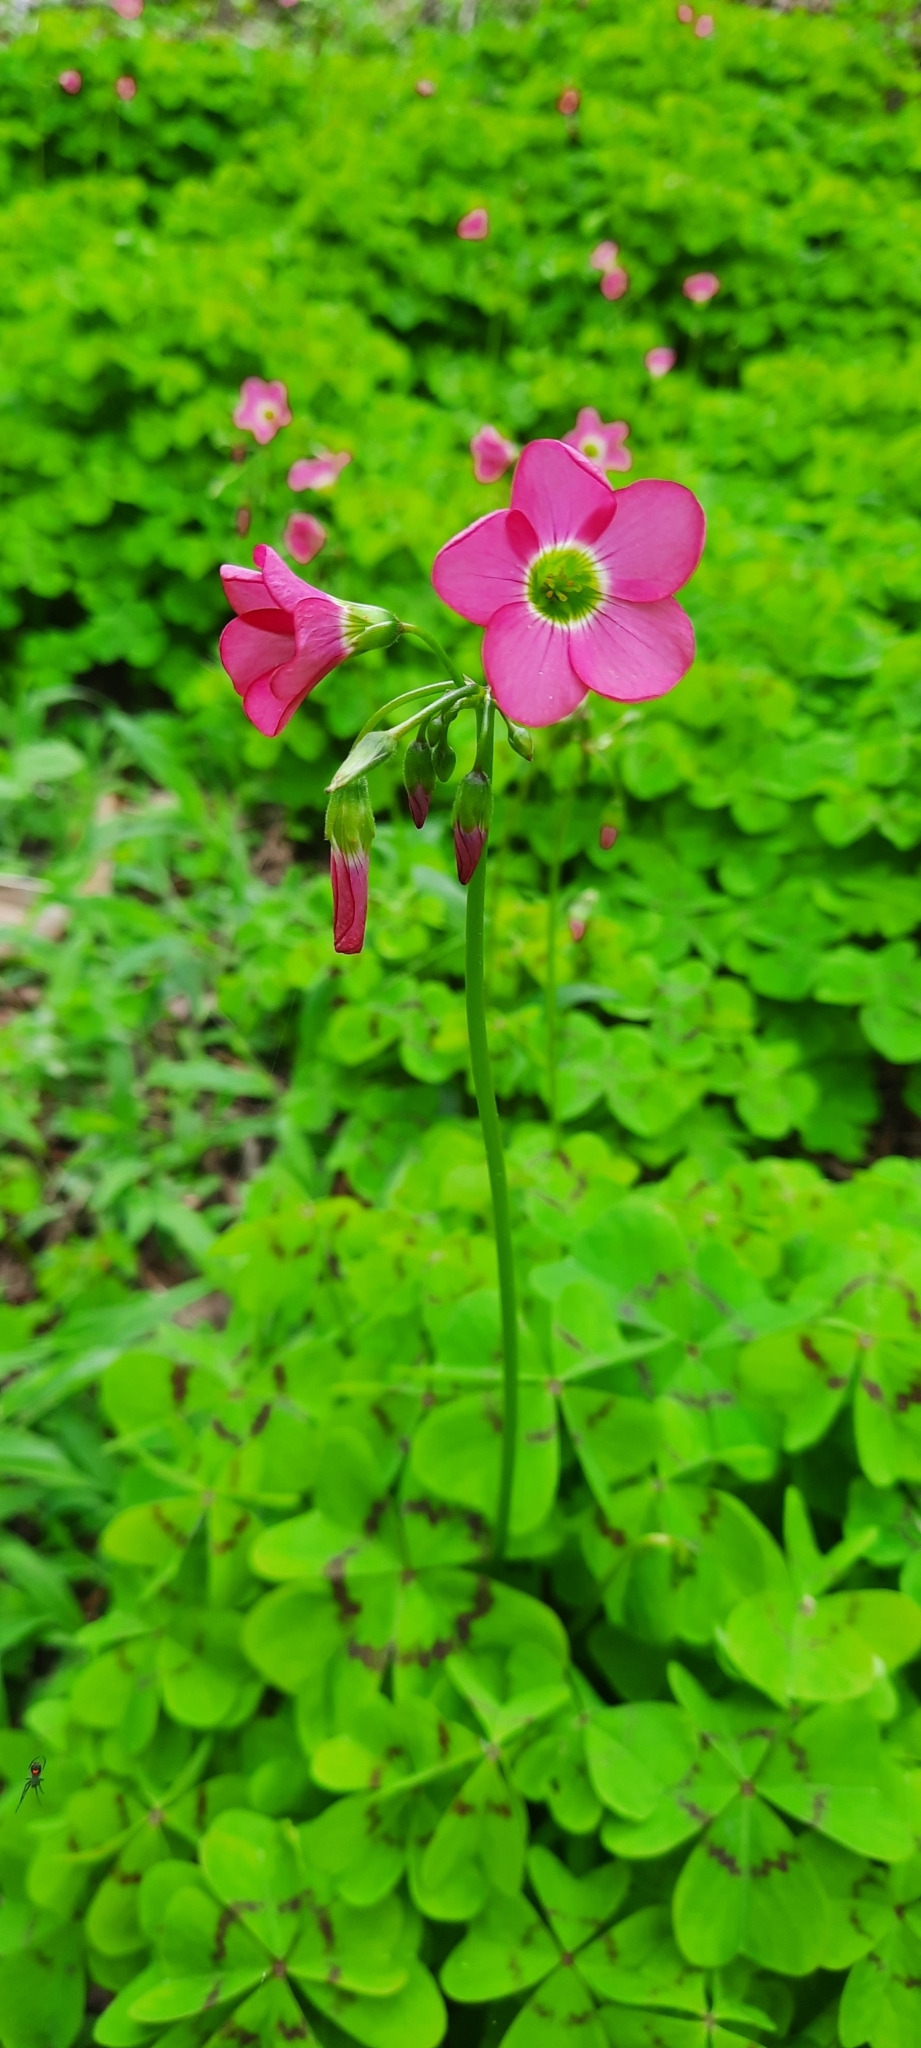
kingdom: Plantae
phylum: Tracheophyta
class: Magnoliopsida
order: Oxalidales
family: Oxalidaceae
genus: Oxalis
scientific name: Oxalis tetraphylla
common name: Four-leaved pink-sorrel
